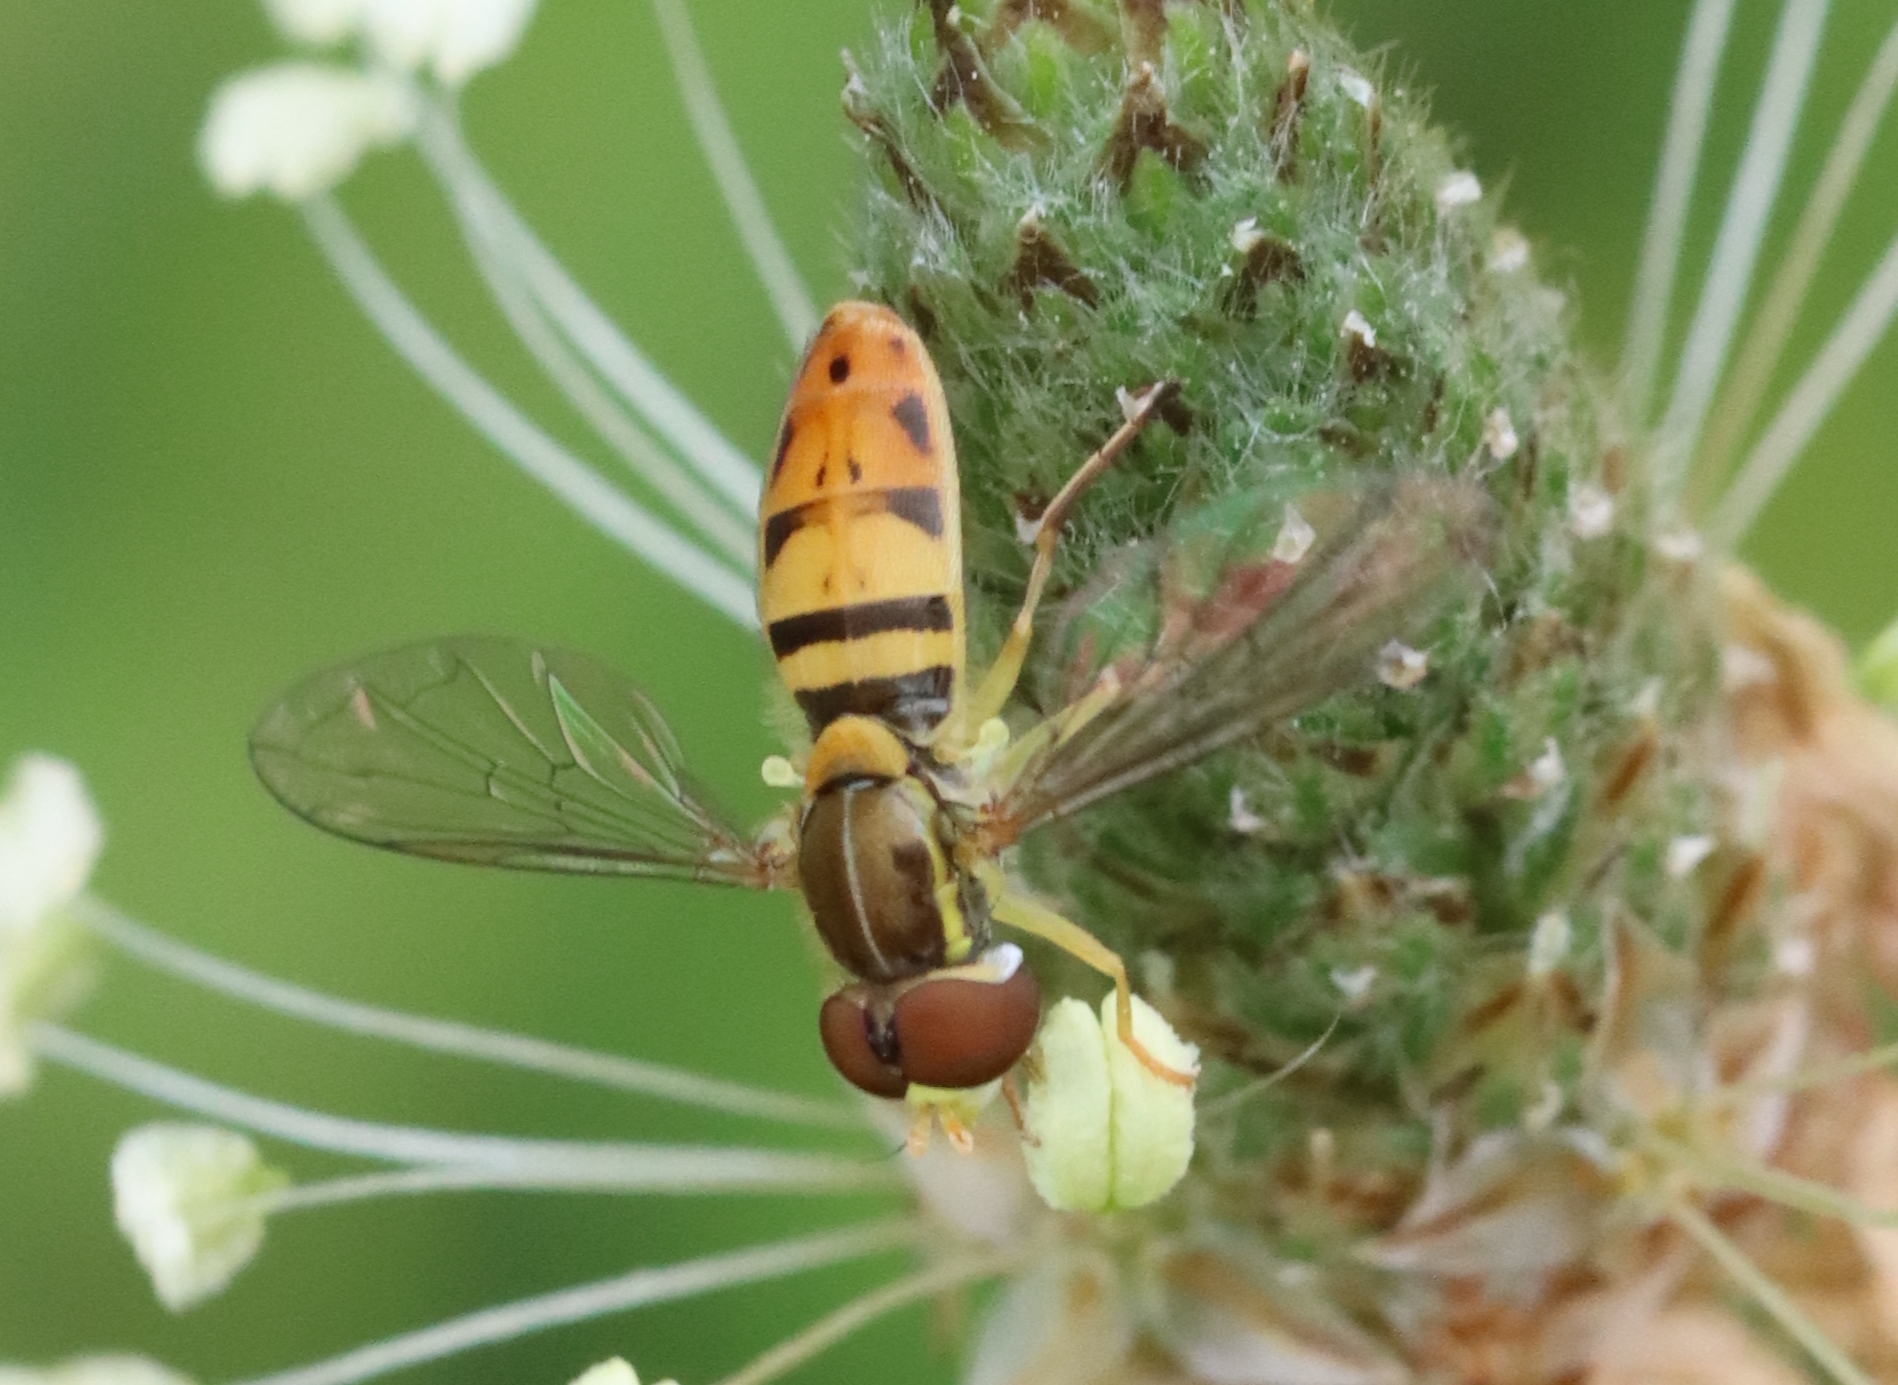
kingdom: Animalia
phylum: Arthropoda
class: Insecta
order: Diptera
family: Syrphidae
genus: Toxomerus
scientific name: Toxomerus marginatus
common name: Syrphid fly
